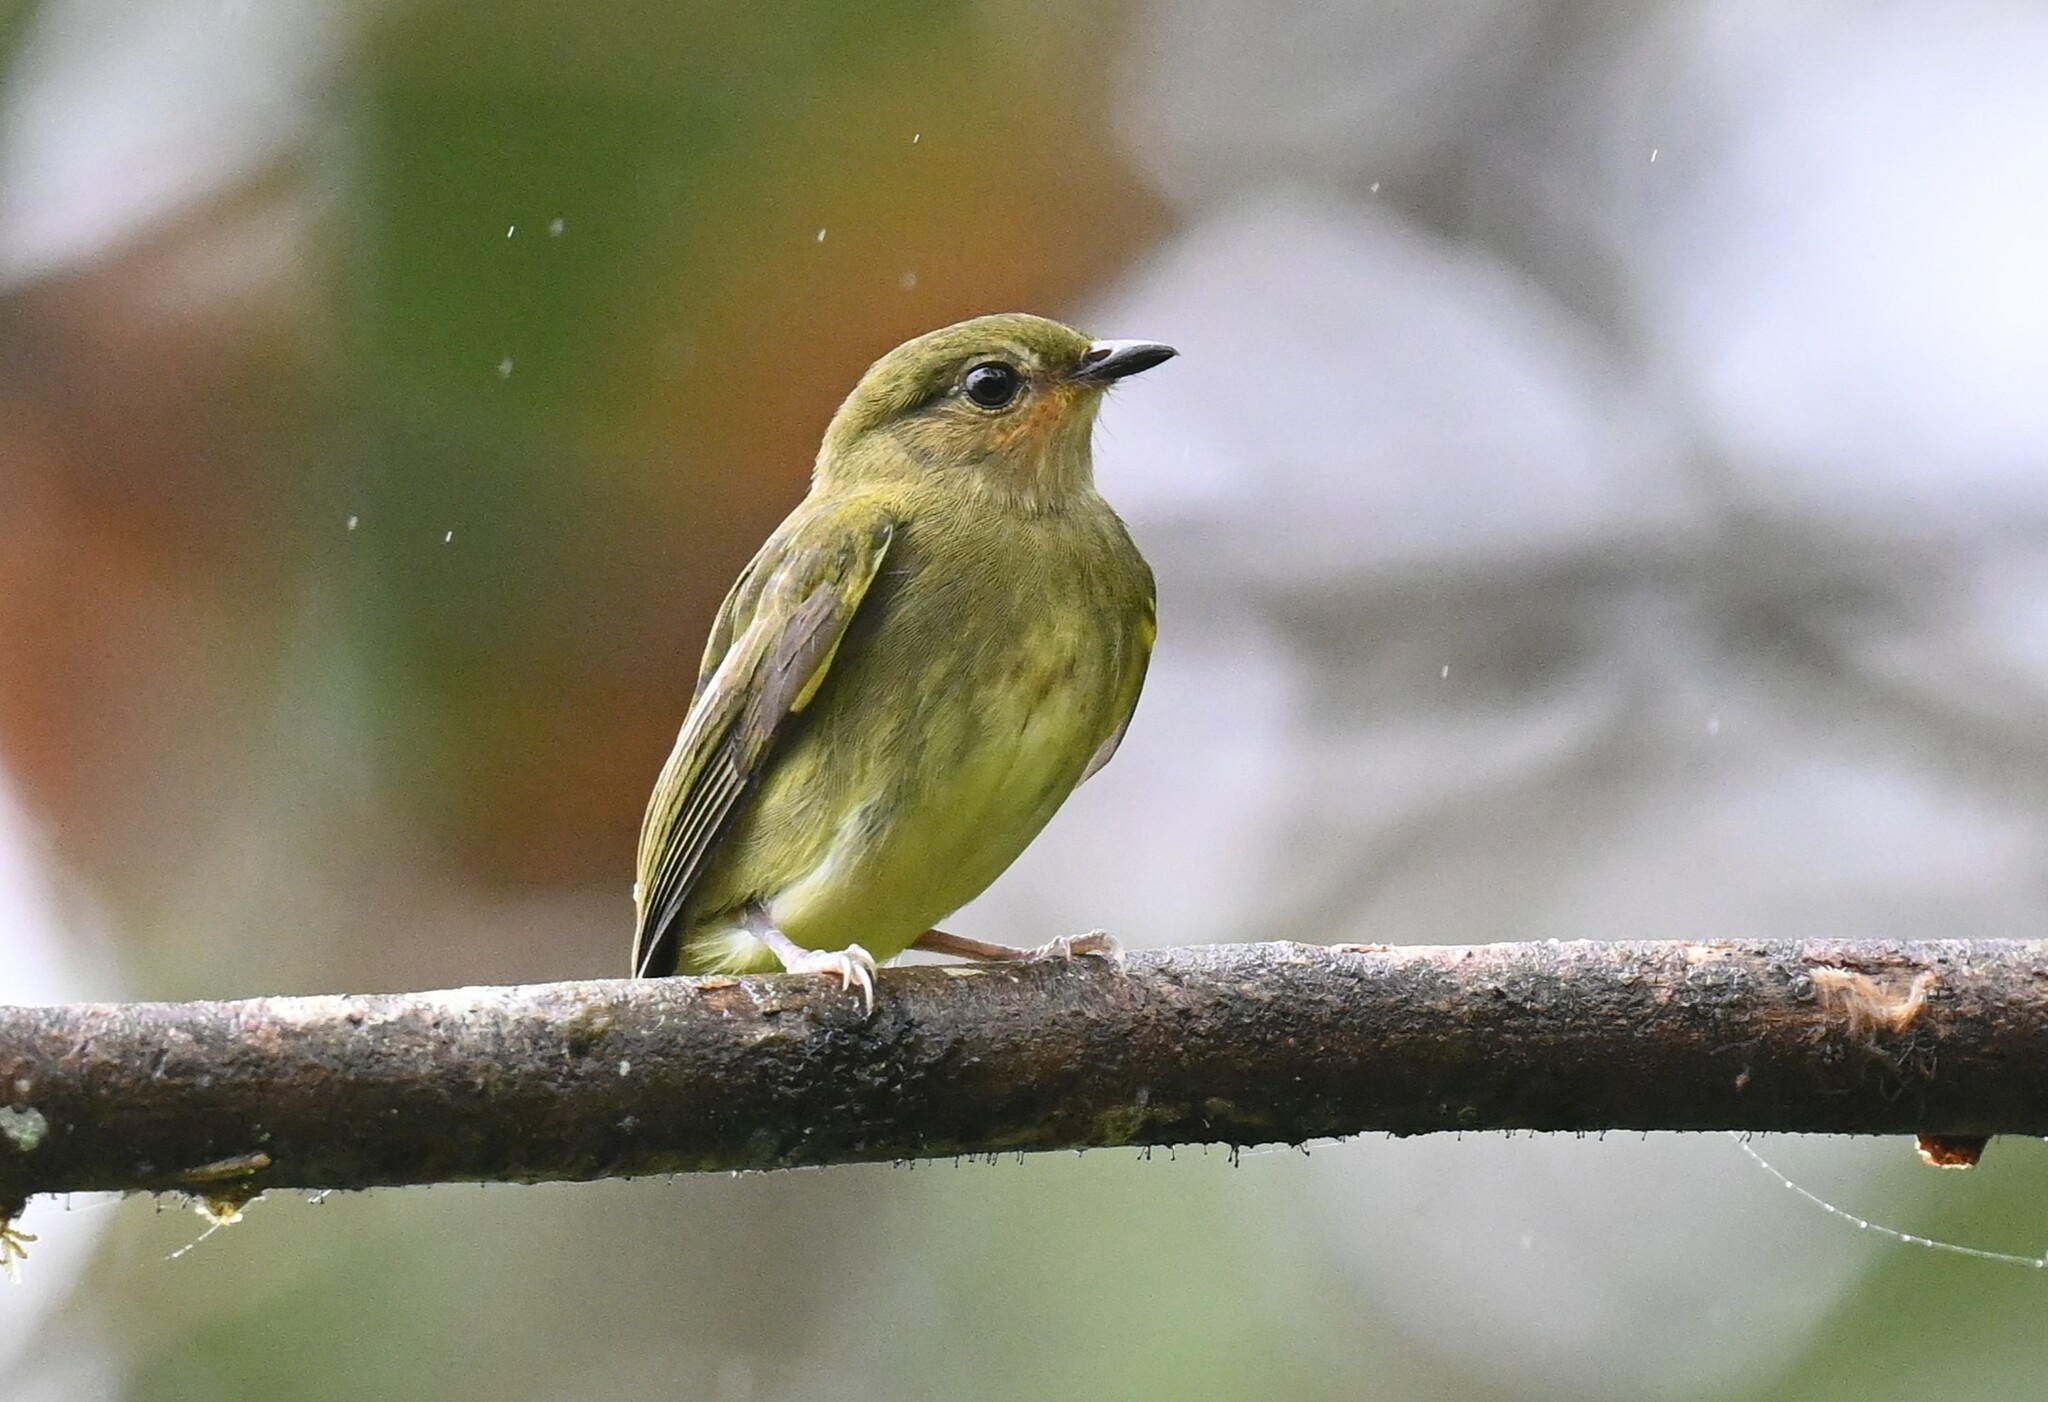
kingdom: Animalia
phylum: Chordata
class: Aves
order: Passeriformes
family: Pipridae
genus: Machaeropterus
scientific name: Machaeropterus deliciosus
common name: Club-winged manakin
